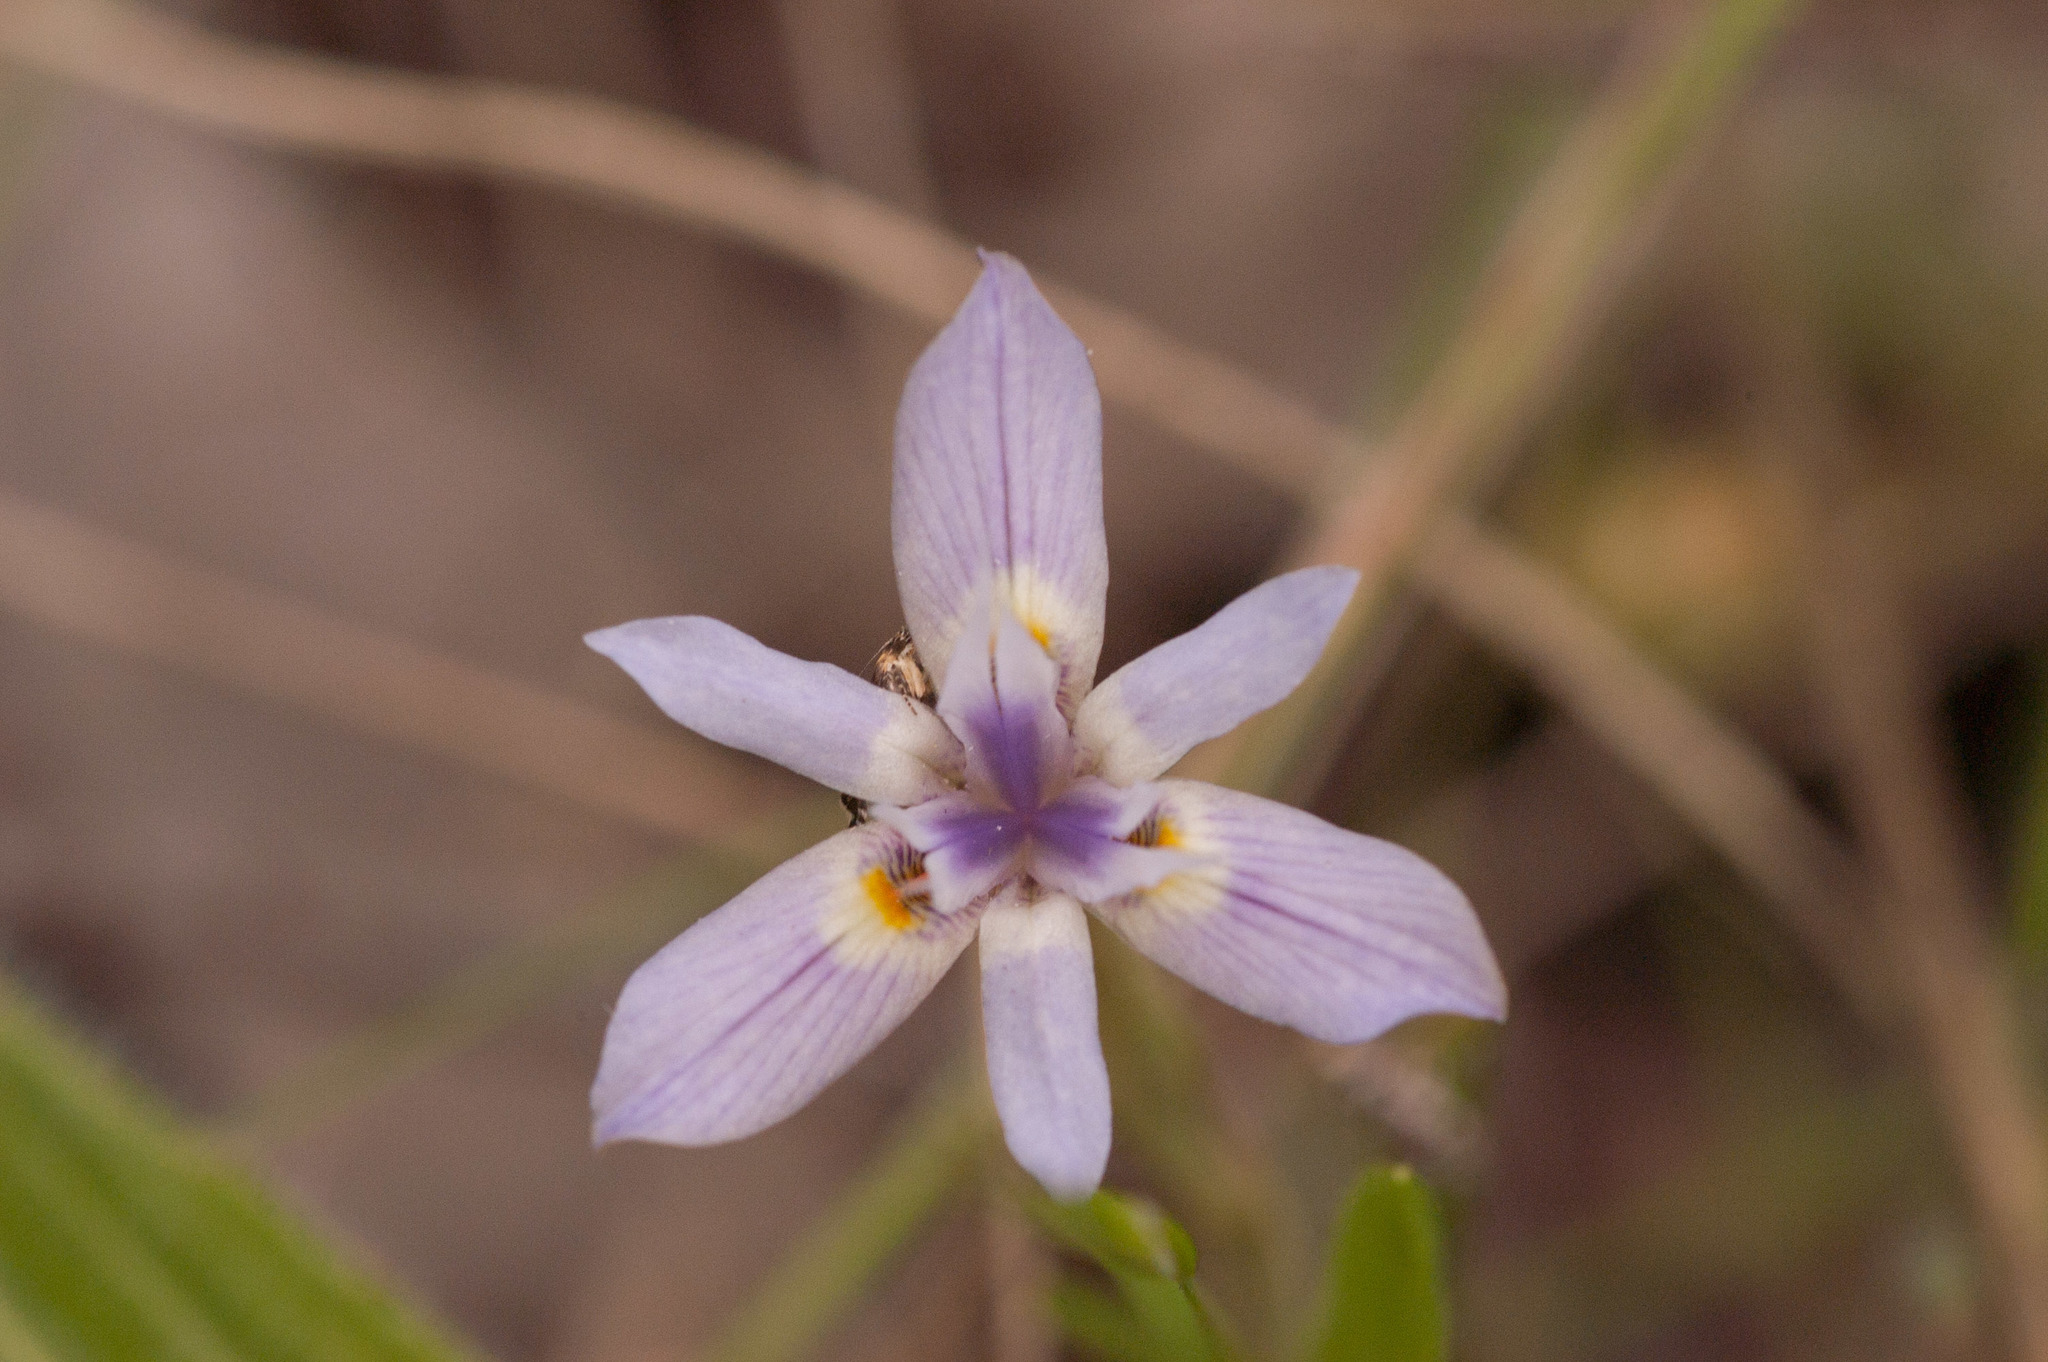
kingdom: Plantae
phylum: Tracheophyta
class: Liliopsida
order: Asparagales
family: Iridaceae
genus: Moraea
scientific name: Moraea setifolia
